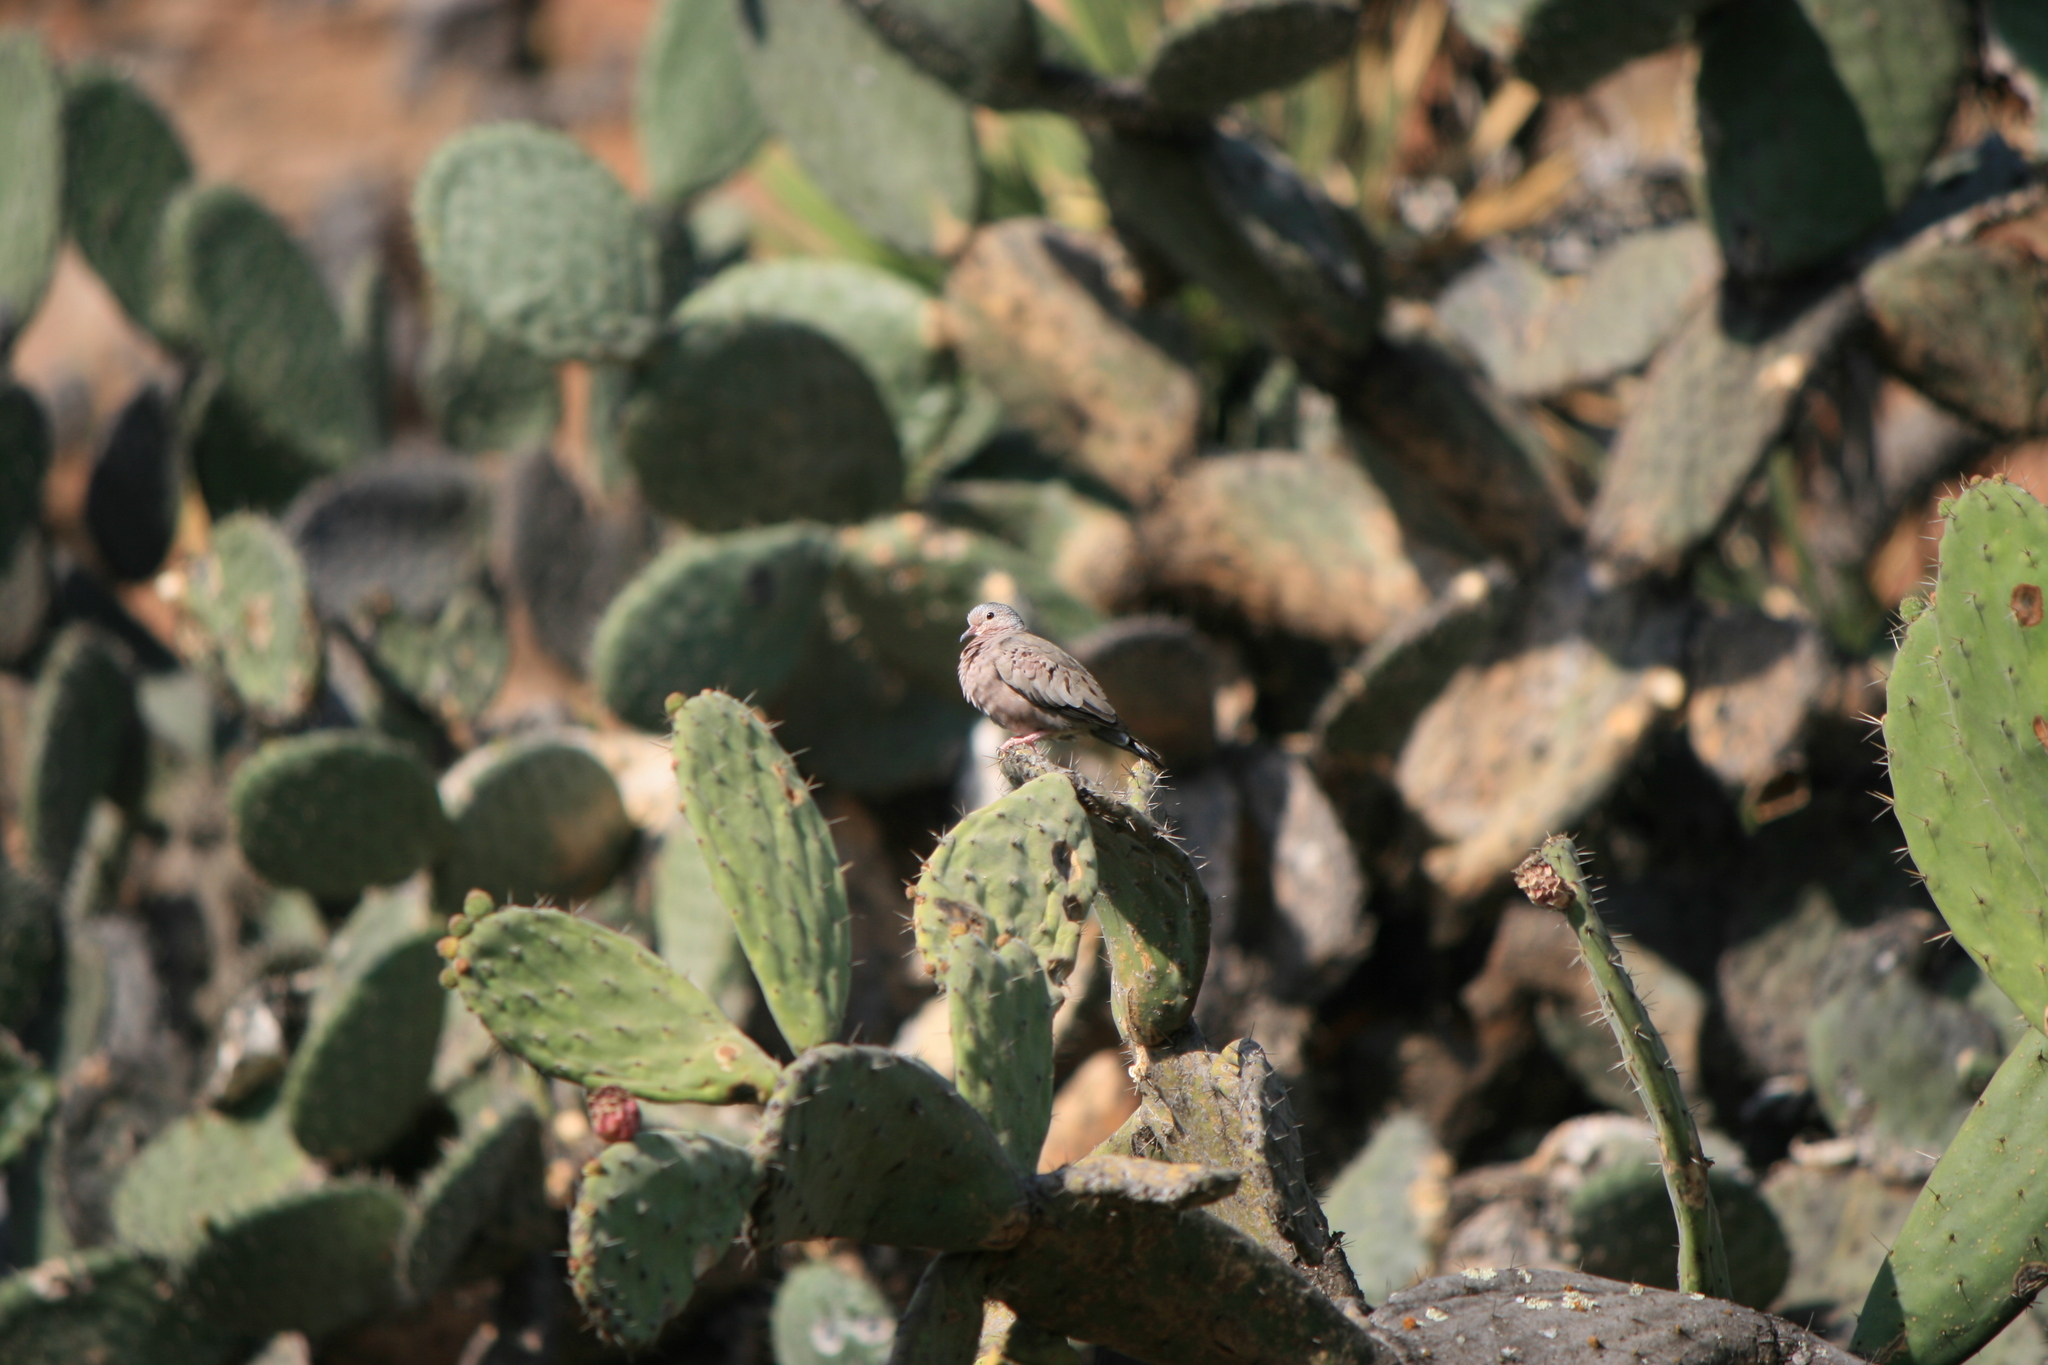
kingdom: Animalia
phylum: Chordata
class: Aves
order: Columbiformes
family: Columbidae
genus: Columbina
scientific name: Columbina passerina
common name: Common ground-dove
